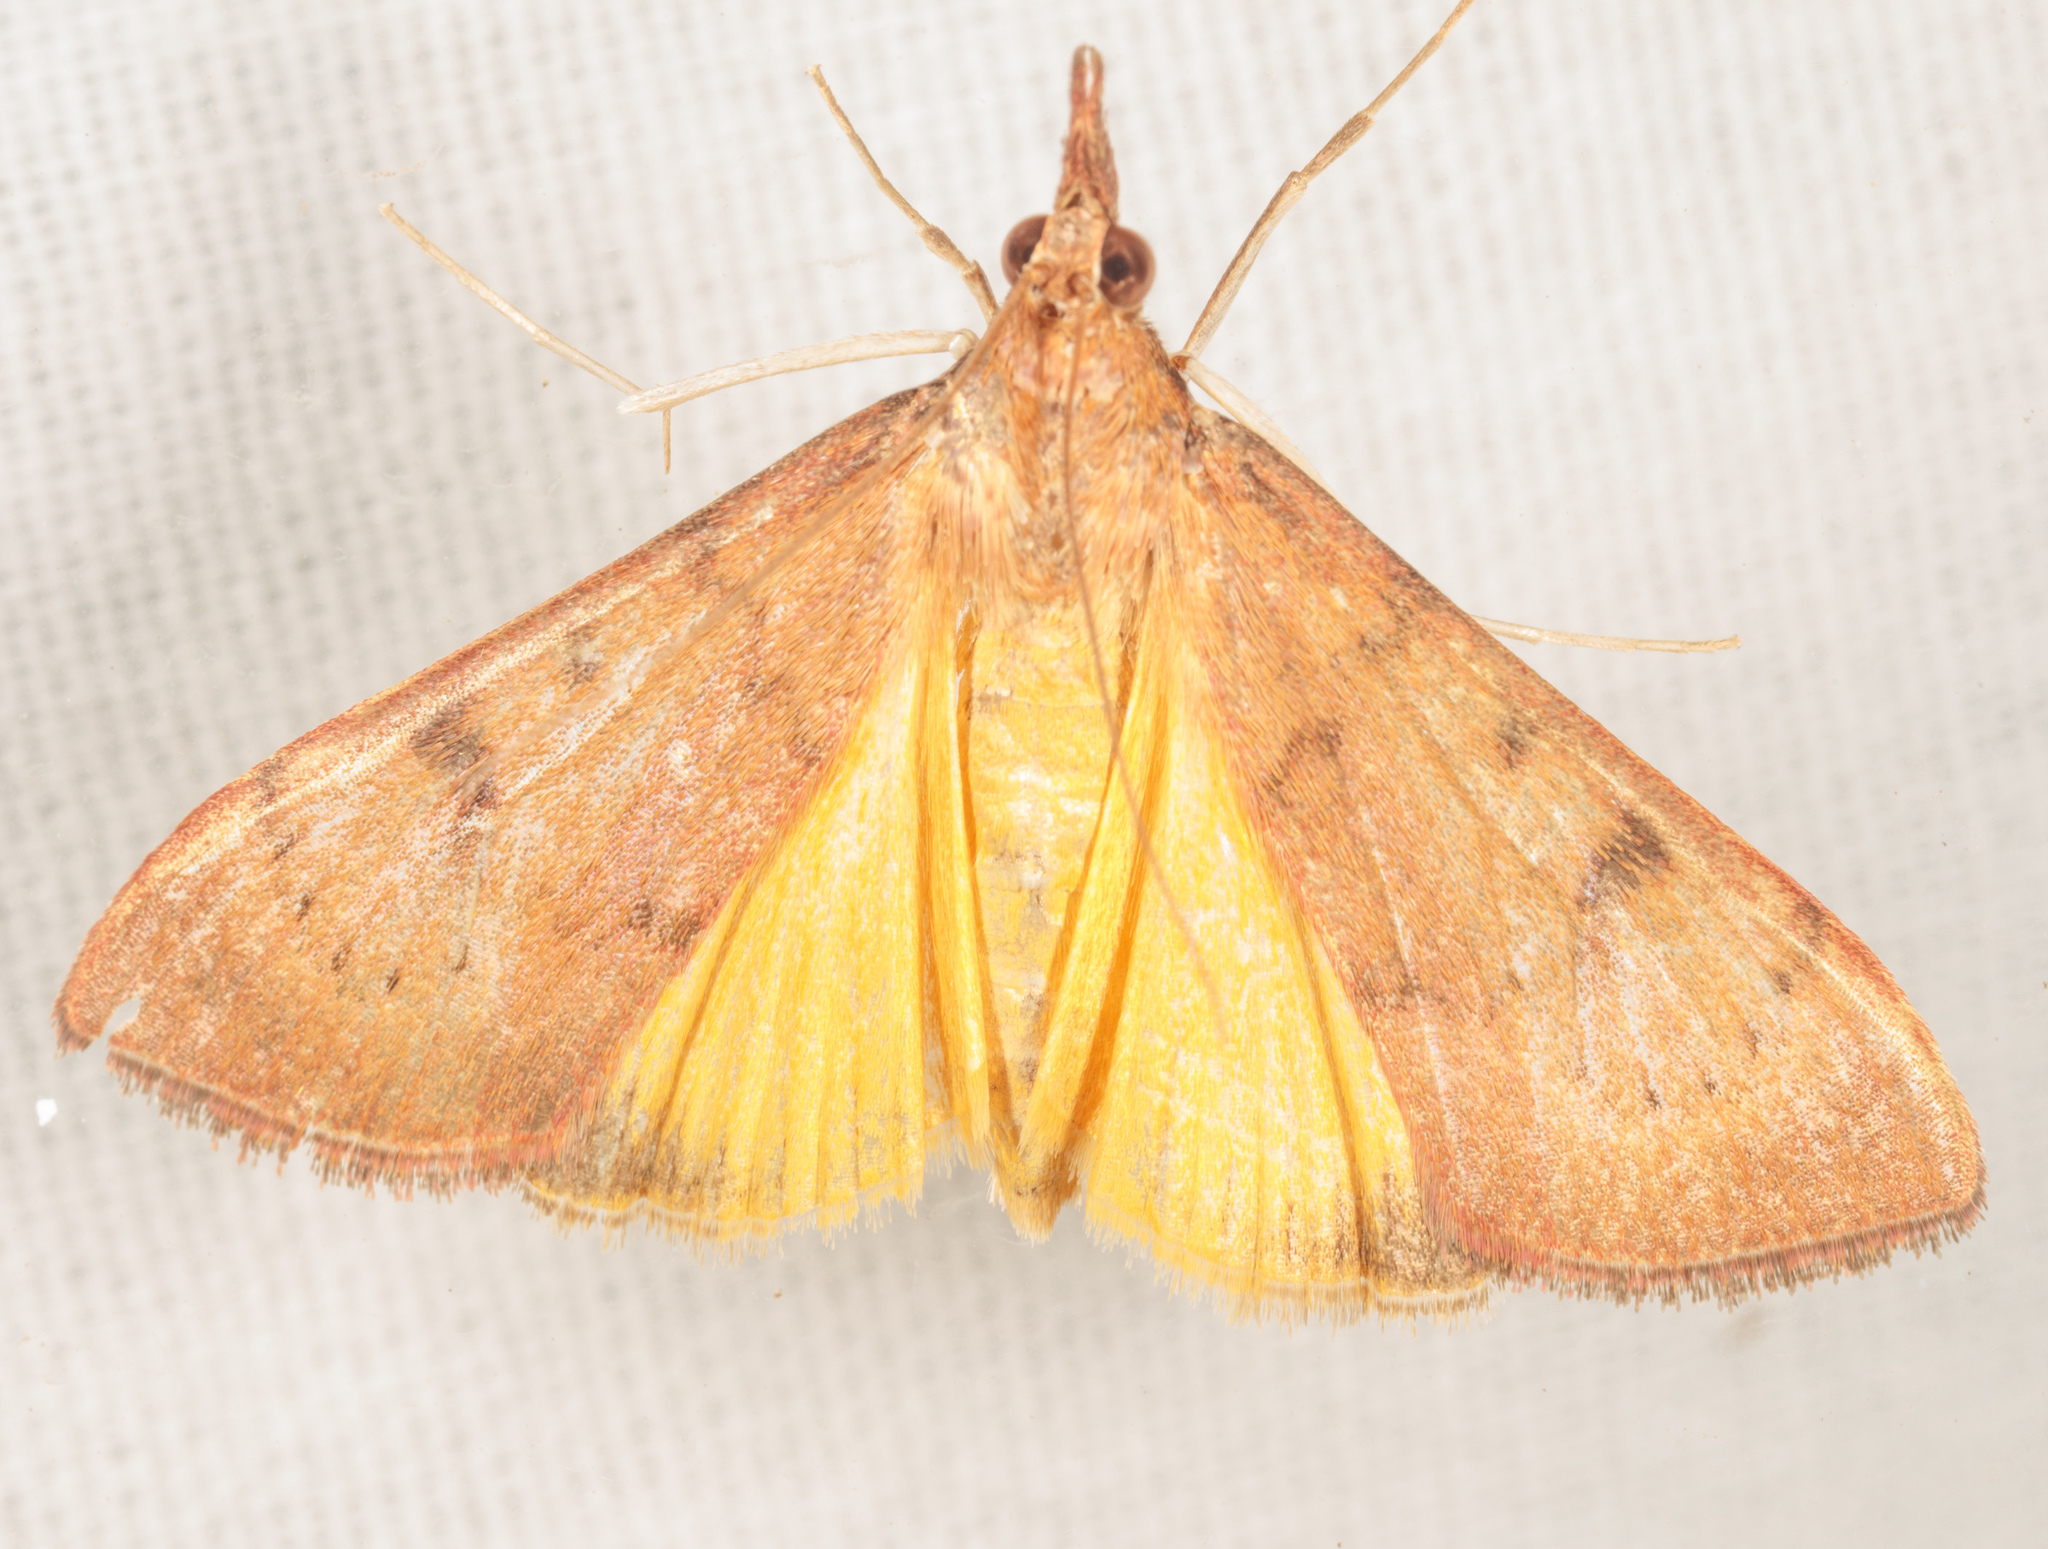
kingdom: Animalia
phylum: Arthropoda
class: Insecta
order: Lepidoptera
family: Crambidae
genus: Uresiphita
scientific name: Uresiphita reversalis
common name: Genista broom moth
